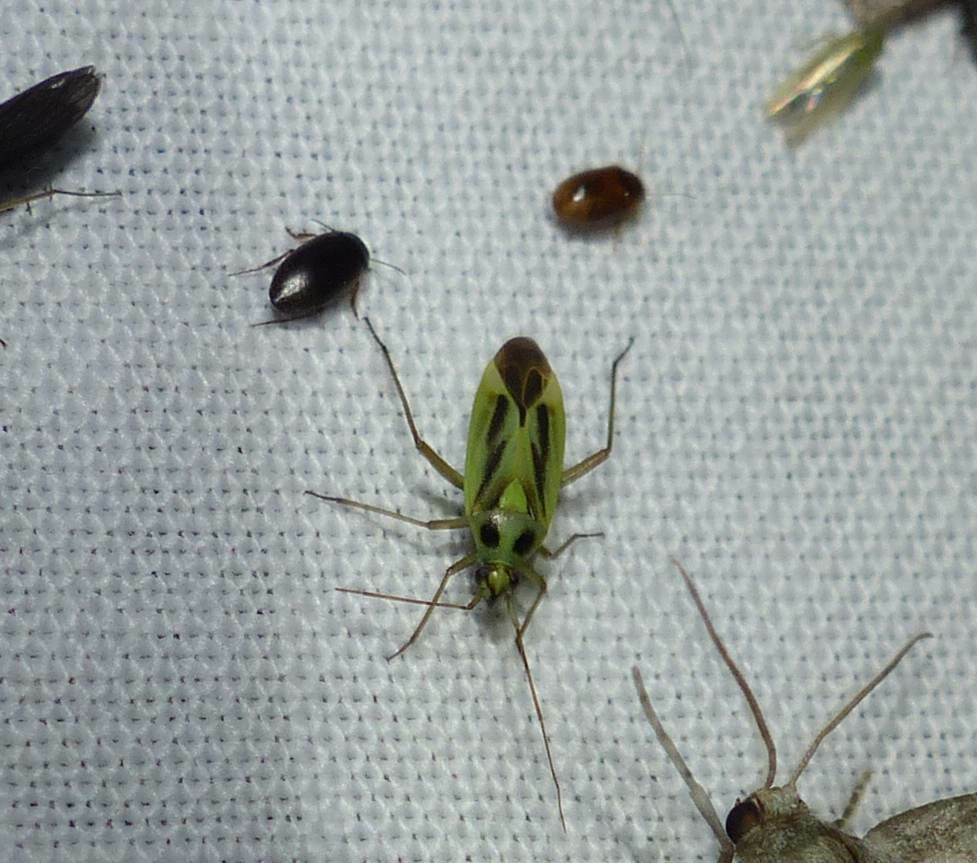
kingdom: Animalia
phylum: Arthropoda
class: Insecta
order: Hemiptera
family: Miridae
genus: Stenotus
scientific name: Stenotus binotatus
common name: Plant bug
